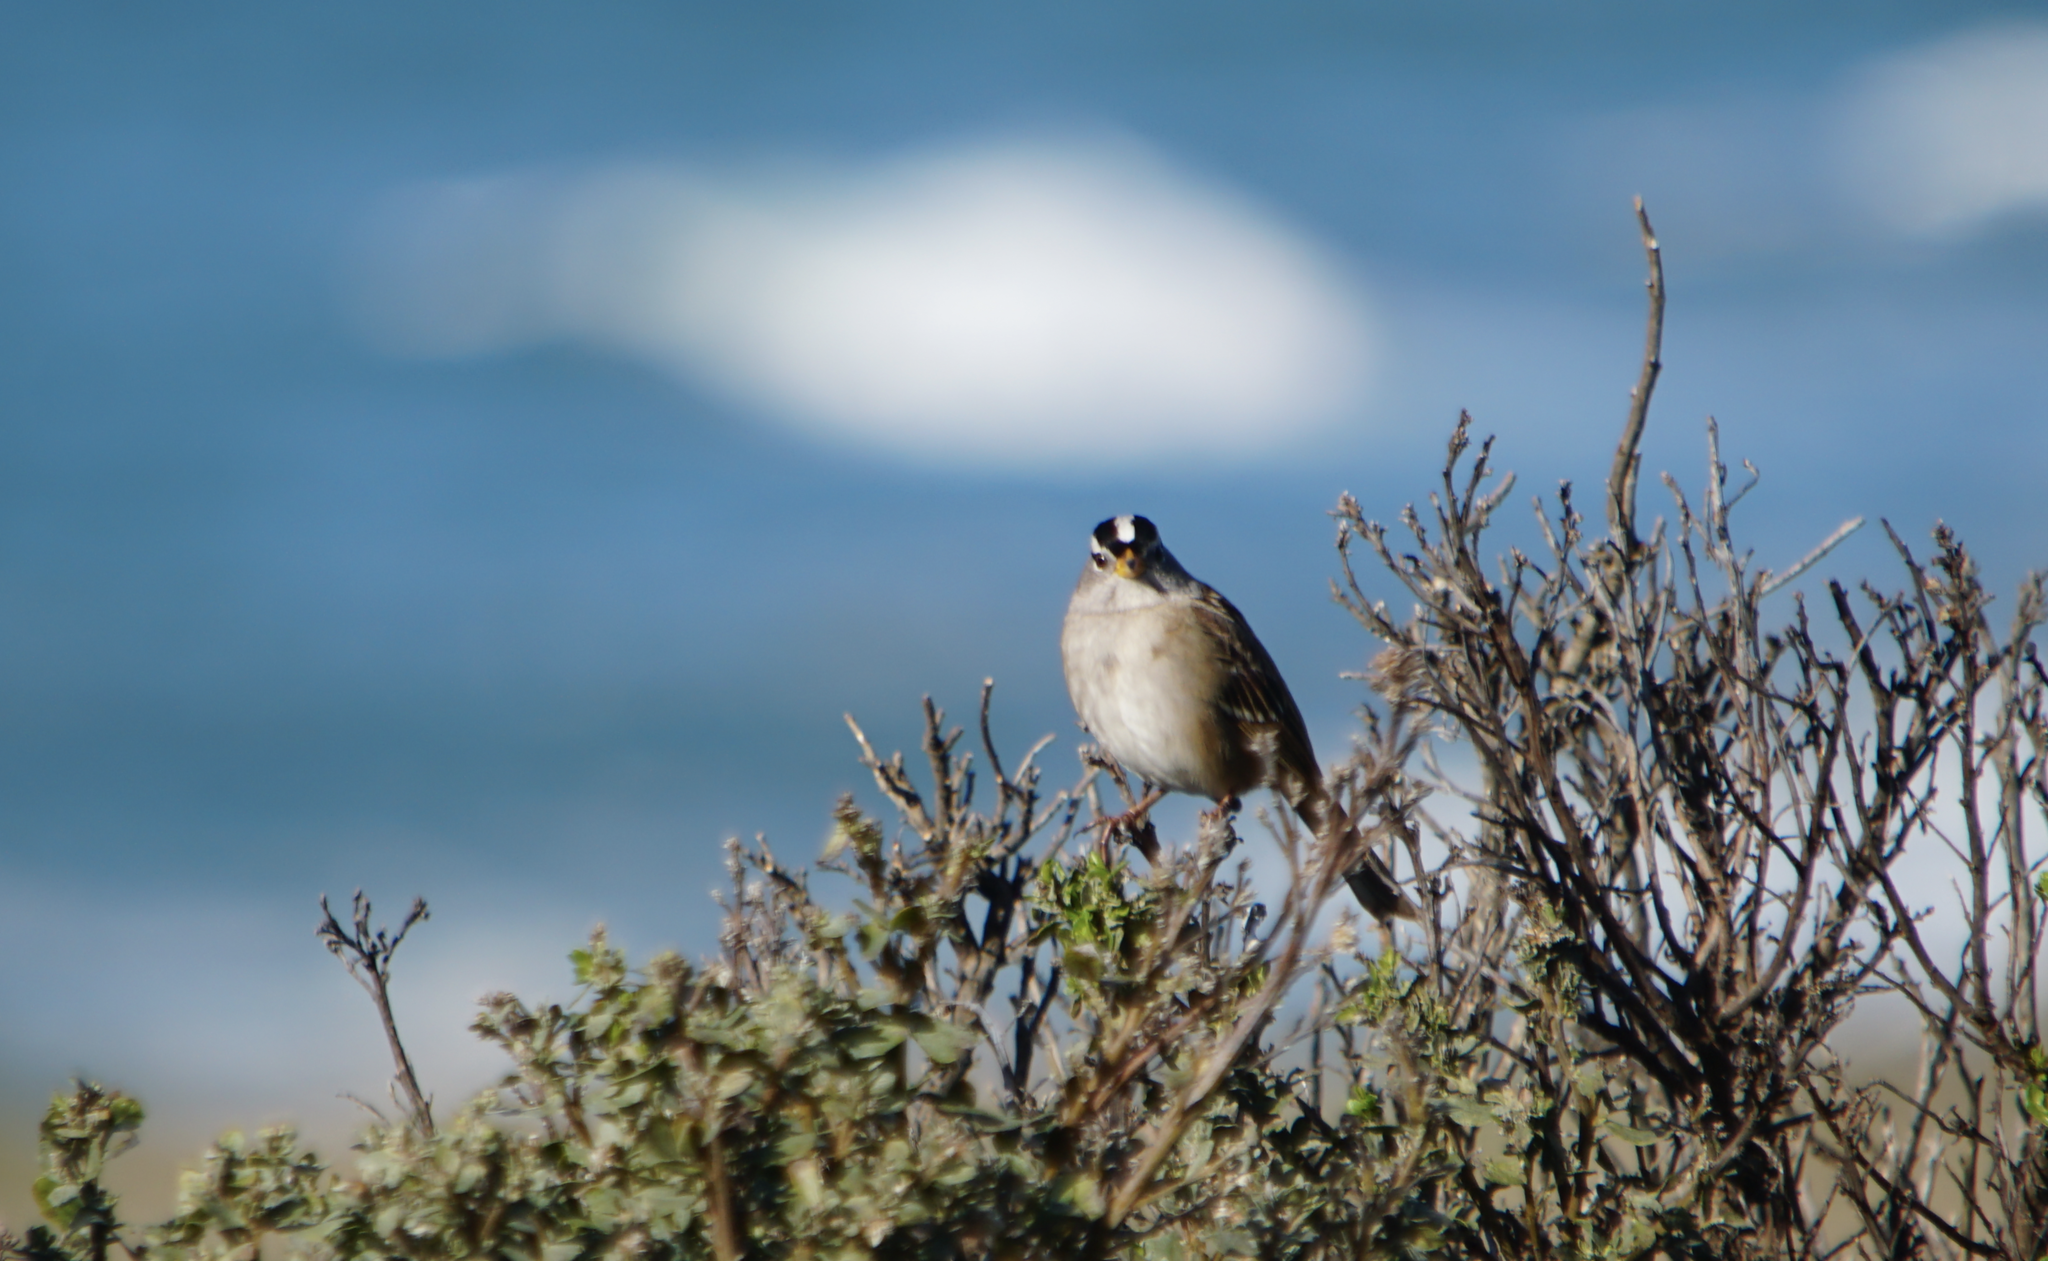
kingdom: Animalia
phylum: Chordata
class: Aves
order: Passeriformes
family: Passerellidae
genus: Zonotrichia
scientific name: Zonotrichia leucophrys
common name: White-crowned sparrow
